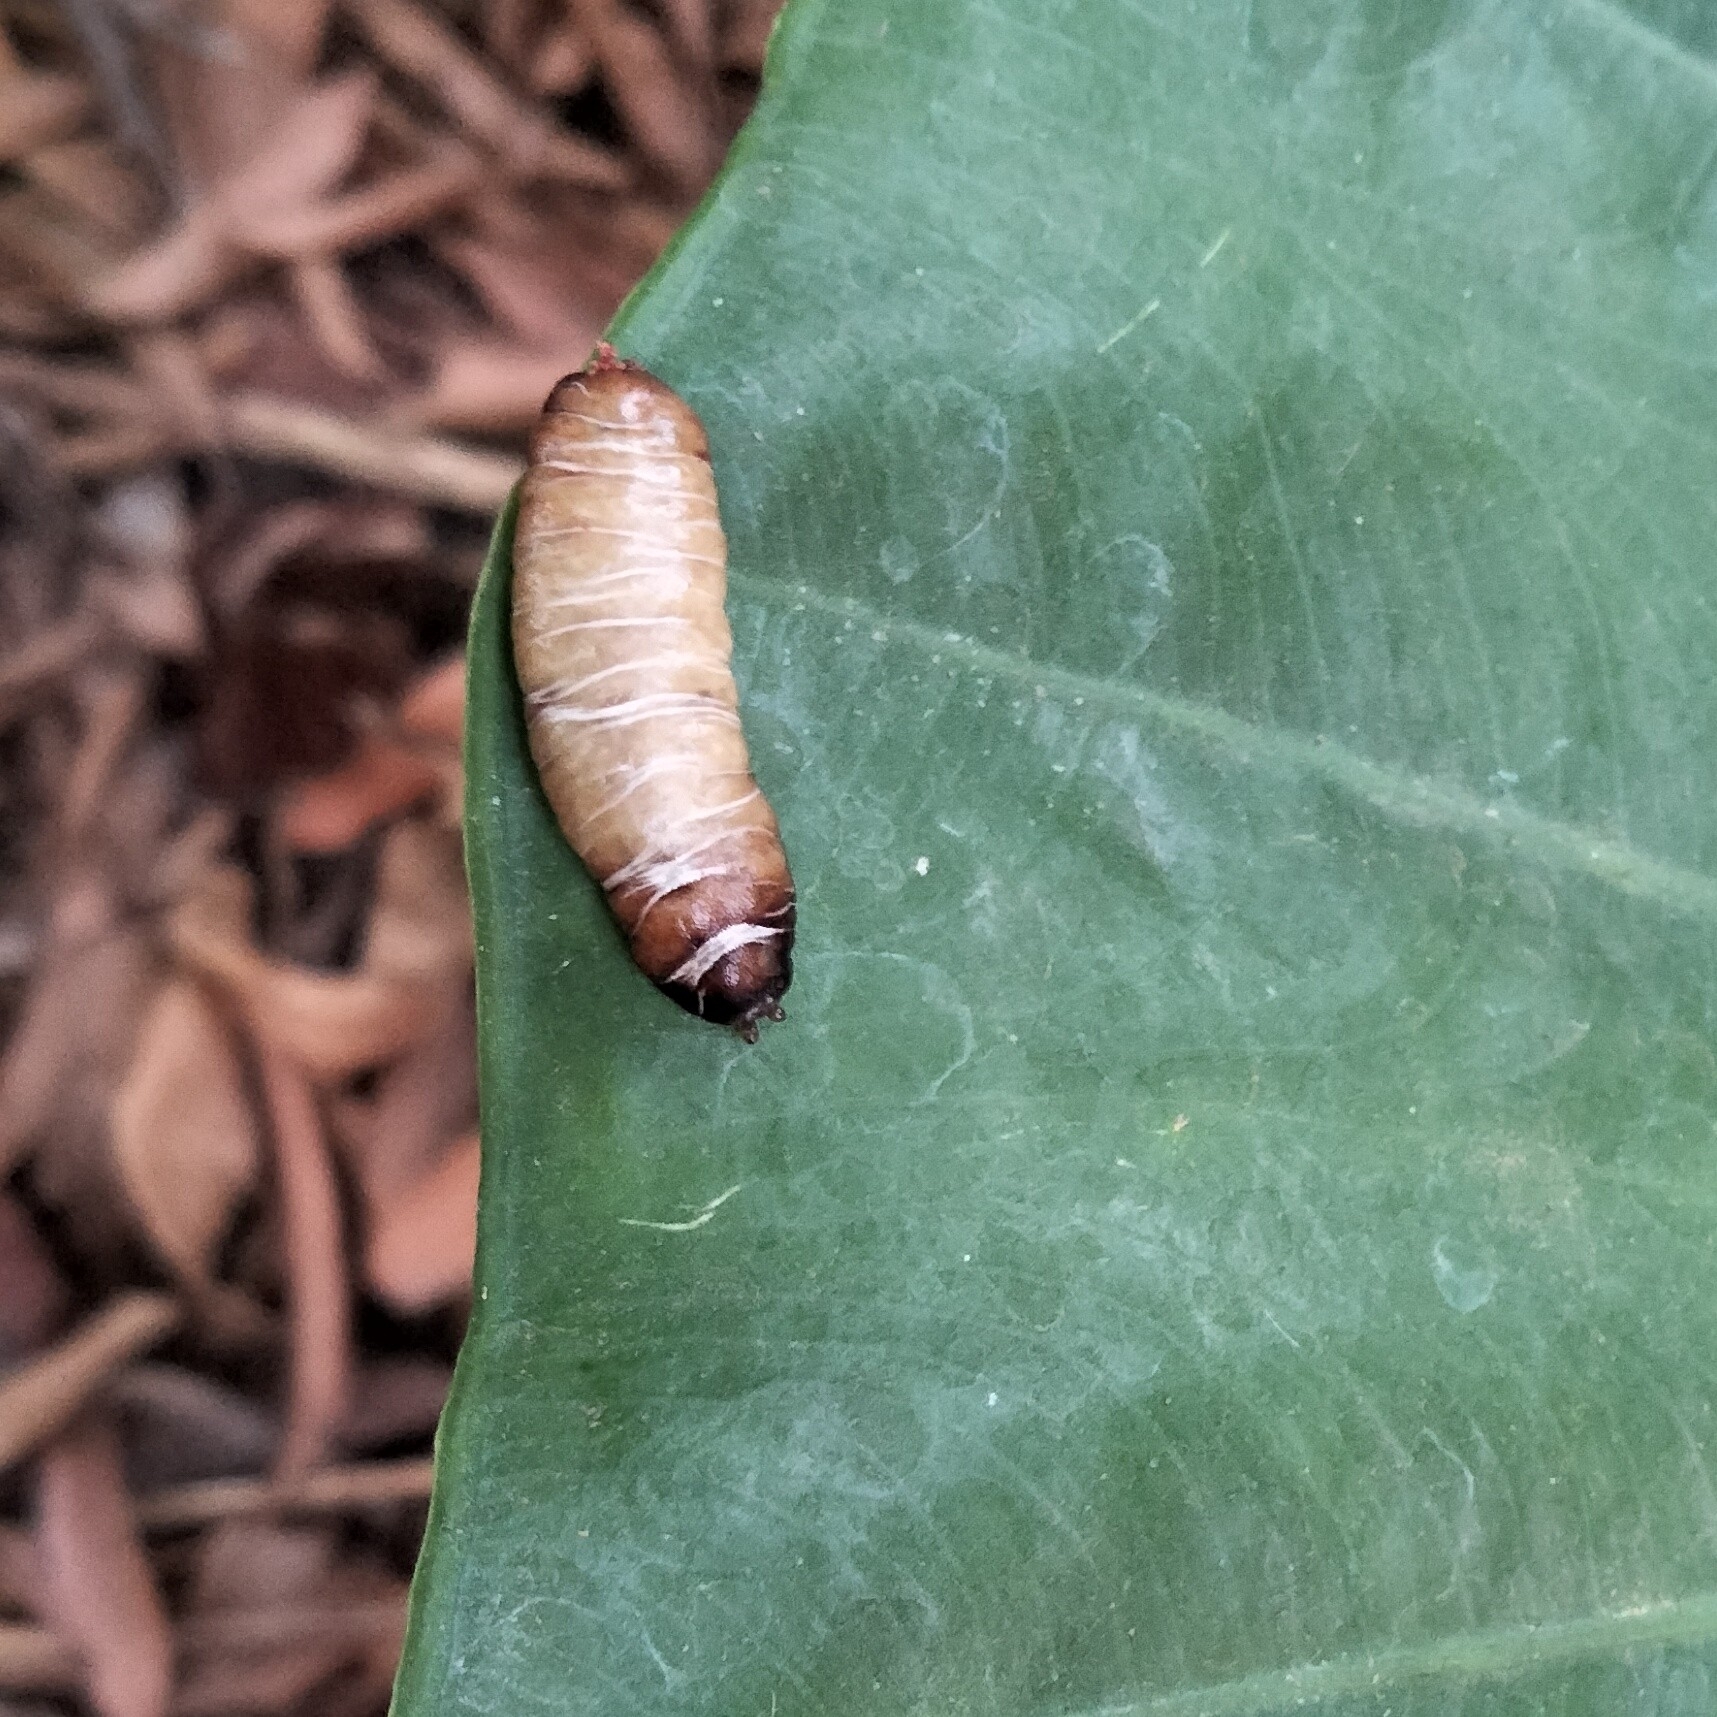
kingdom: Animalia
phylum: Mollusca
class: Gastropoda
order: Systellommatophora
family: Veronicellidae
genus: Laevicaulis
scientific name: Laevicaulis haroldi
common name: Caterpillar slug
